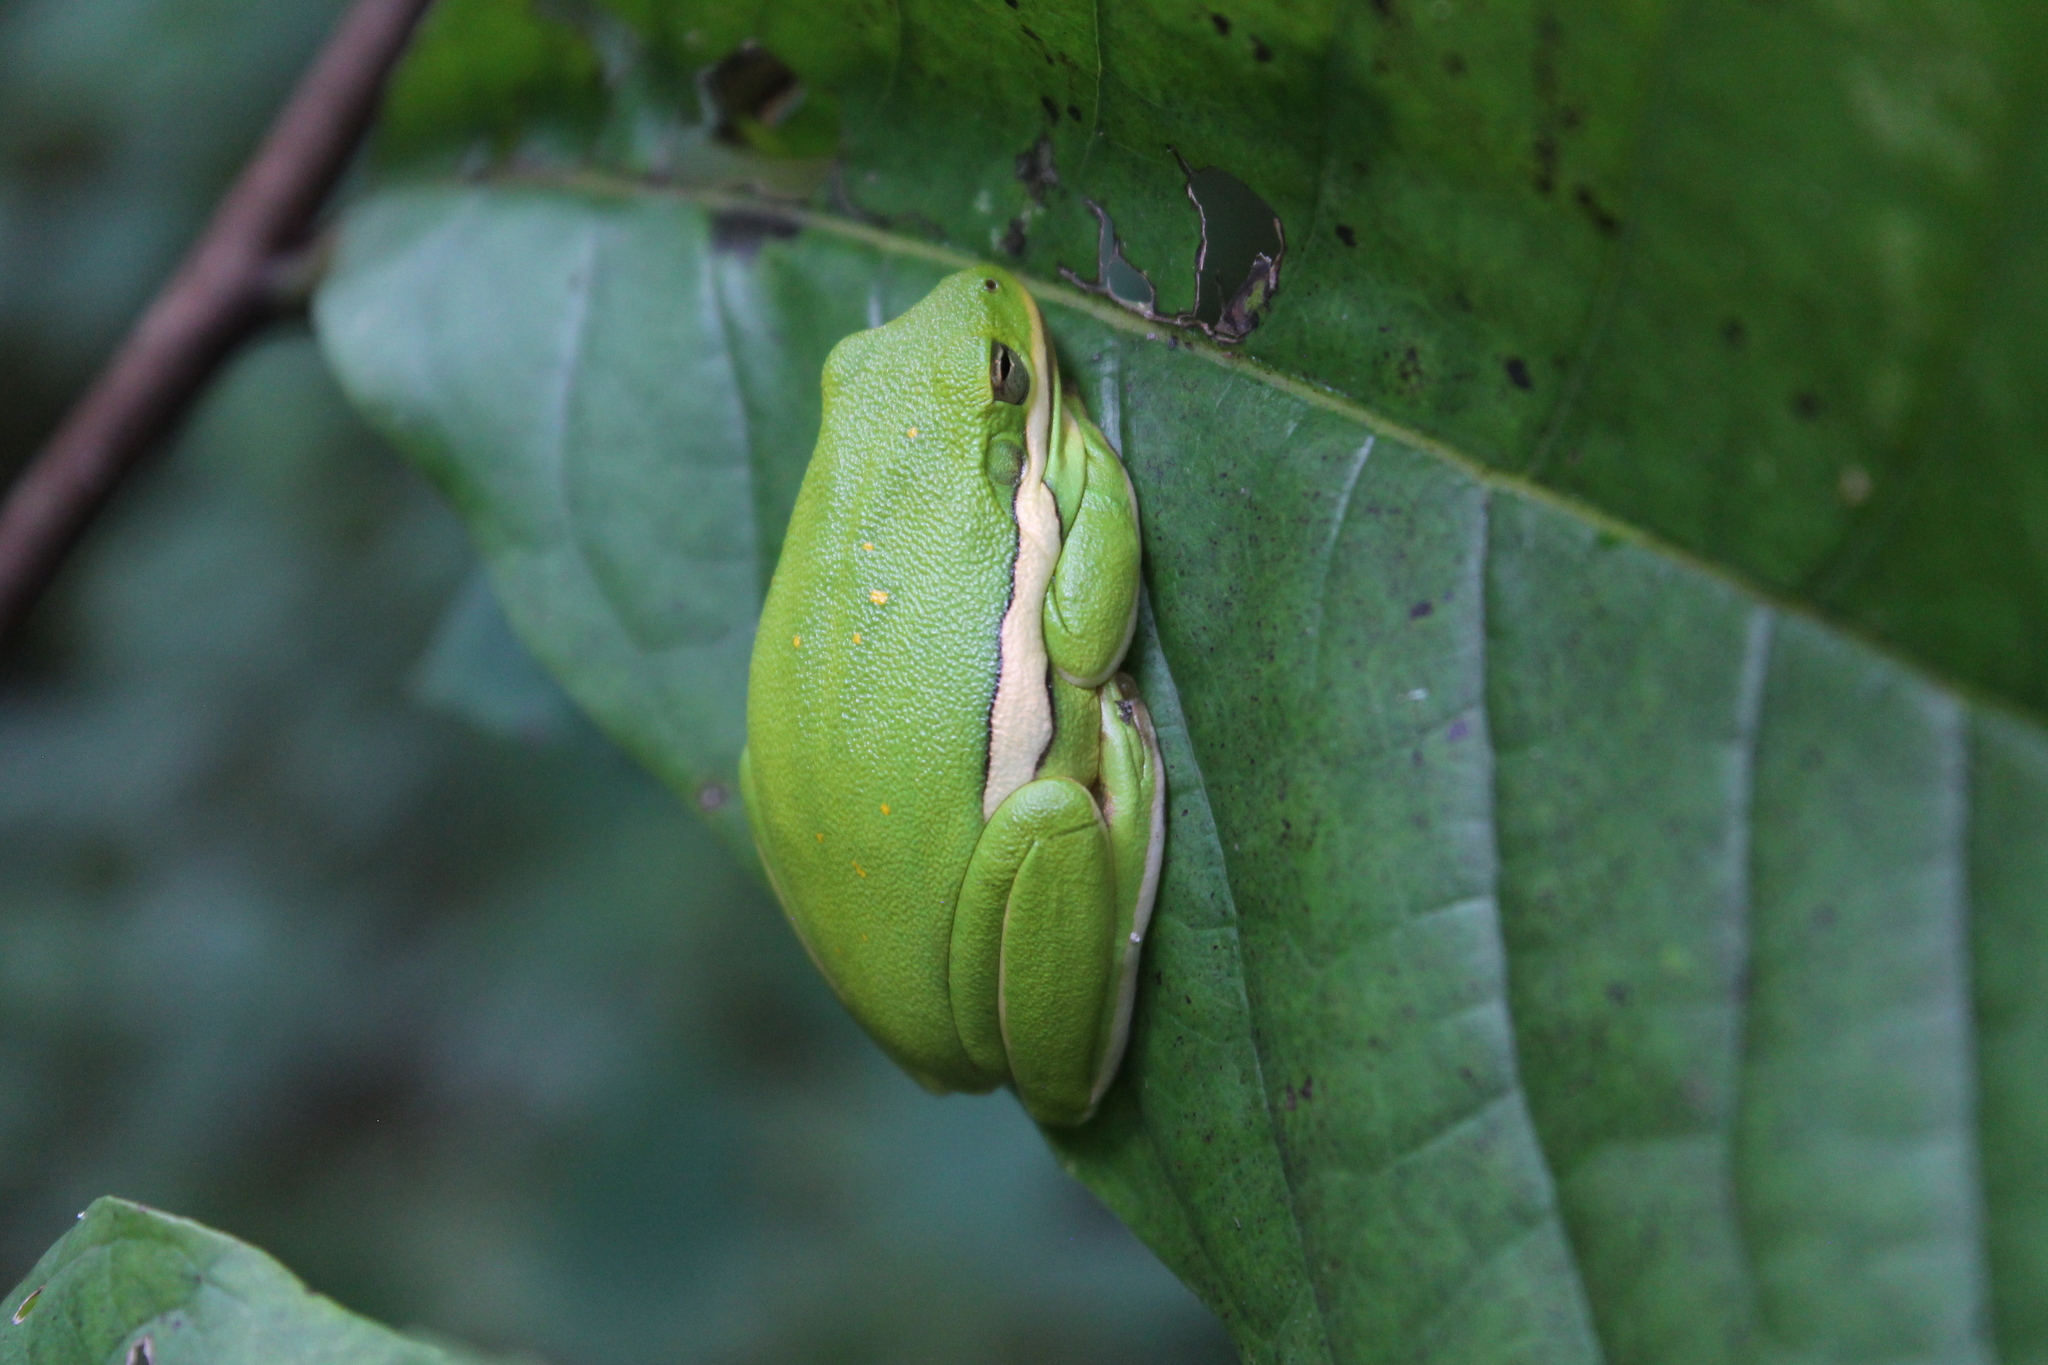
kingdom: Animalia
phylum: Chordata
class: Amphibia
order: Anura
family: Hylidae
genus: Dryophytes
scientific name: Dryophytes cinereus
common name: Green treefrog
